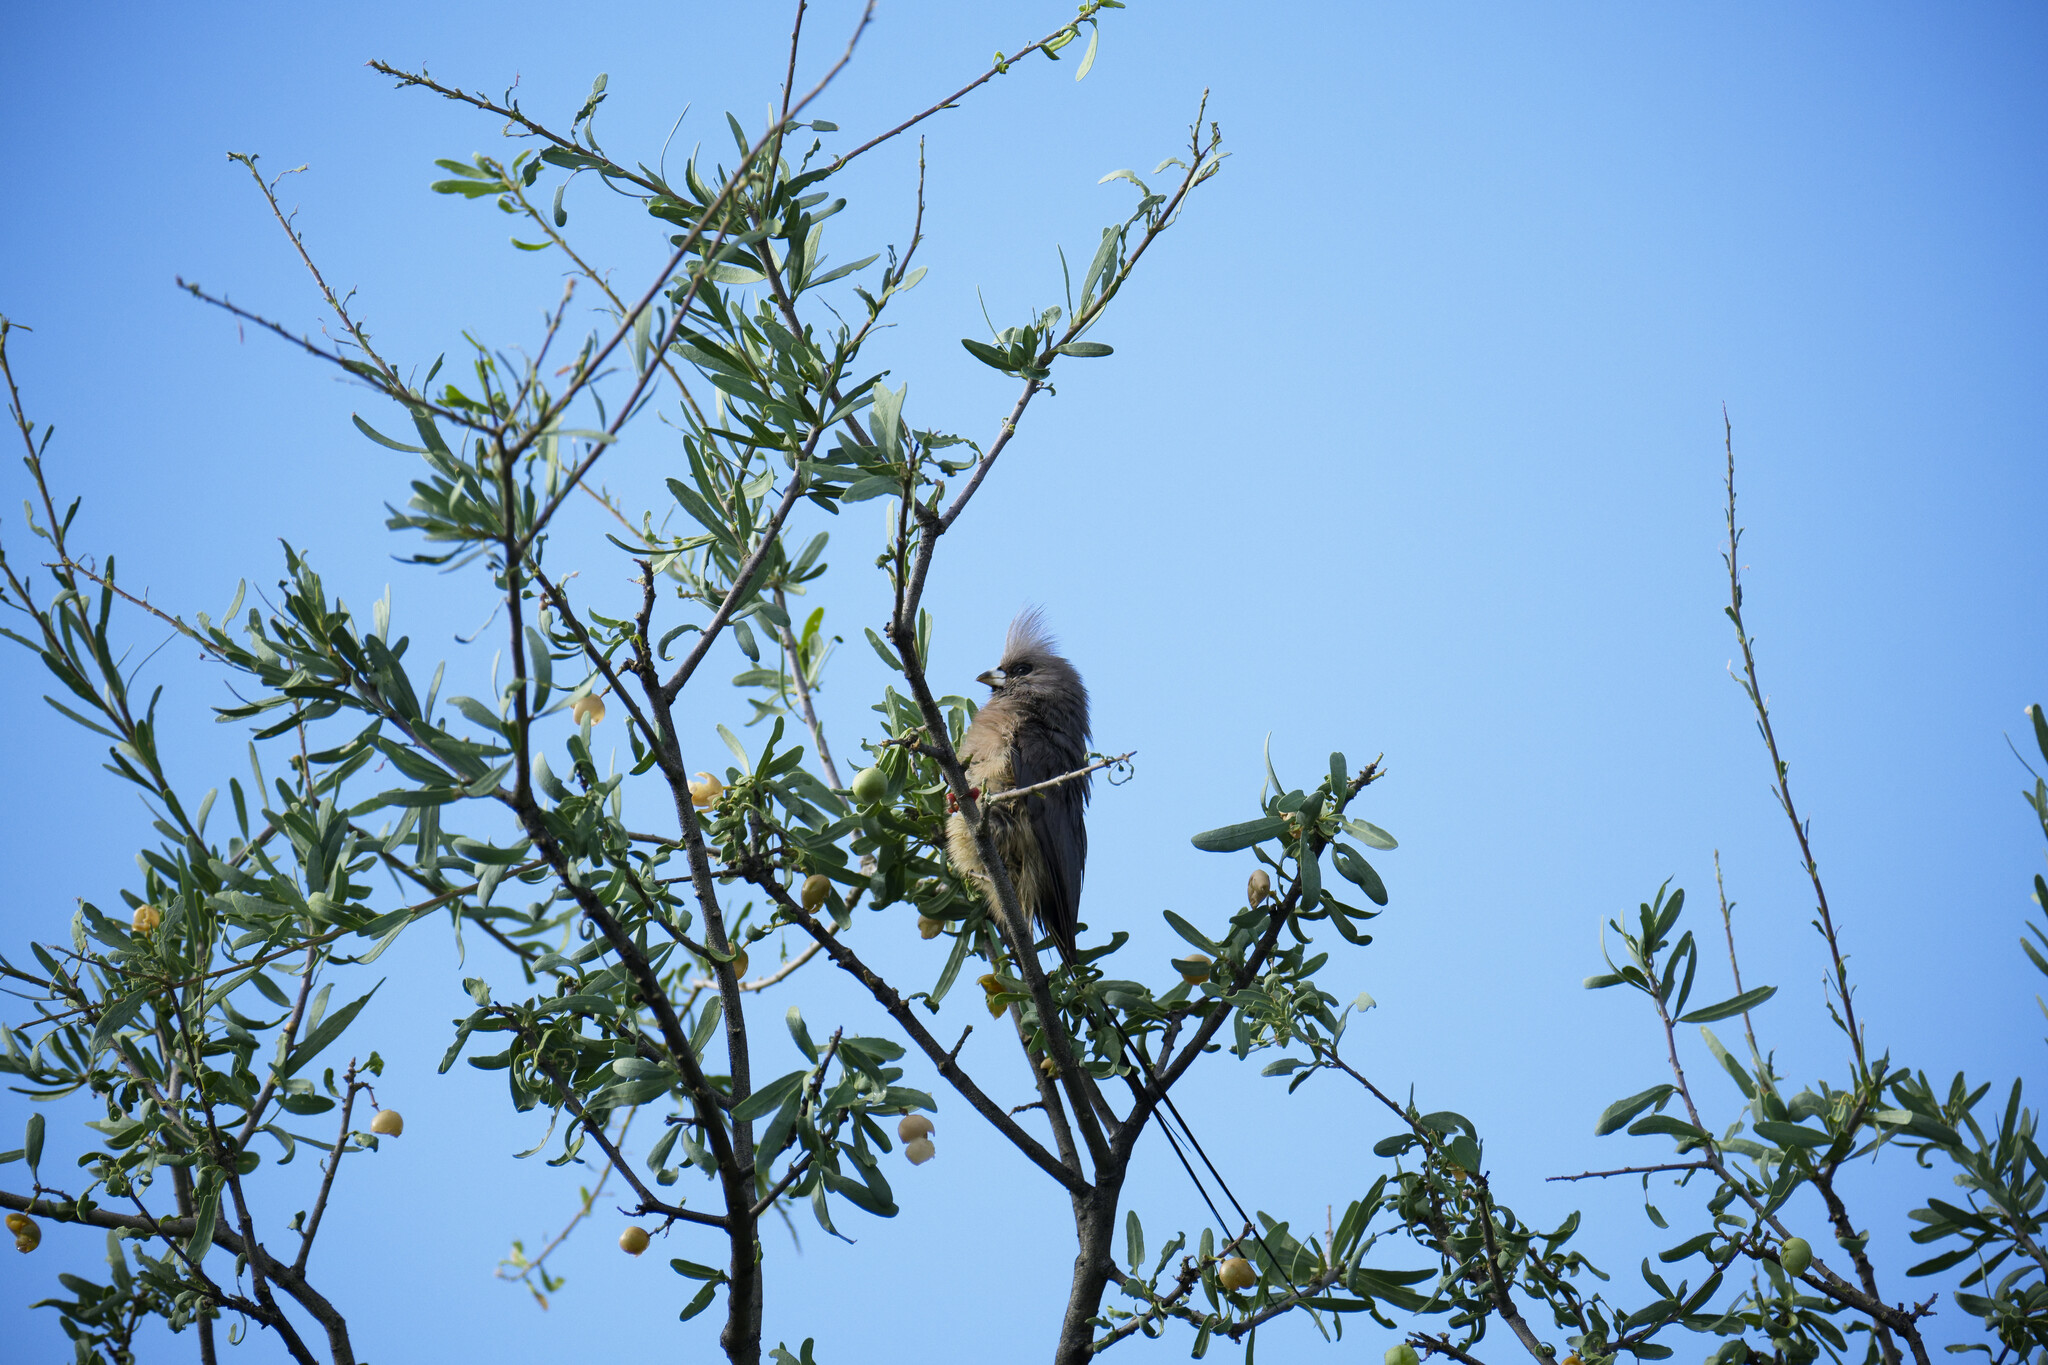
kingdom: Animalia
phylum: Chordata
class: Aves
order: Coliiformes
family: Coliidae
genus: Colius
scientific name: Colius colius
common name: White-backed mousebird
